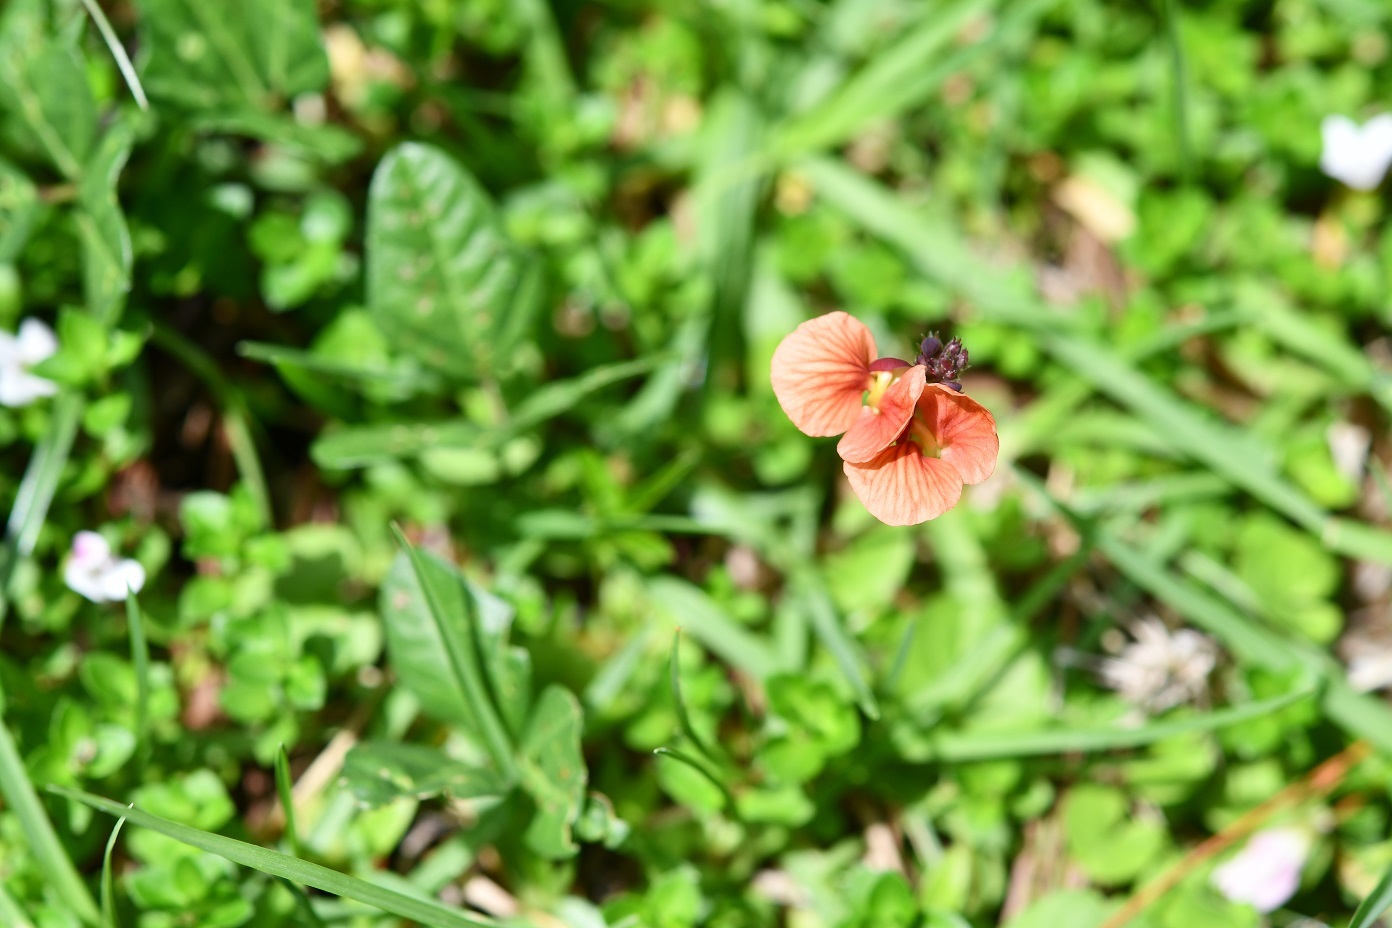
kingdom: Plantae
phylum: Tracheophyta
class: Magnoliopsida
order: Fabales
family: Fabaceae
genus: Macroptilium
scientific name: Macroptilium gibbosifolium
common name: Variableleaf bushbean
